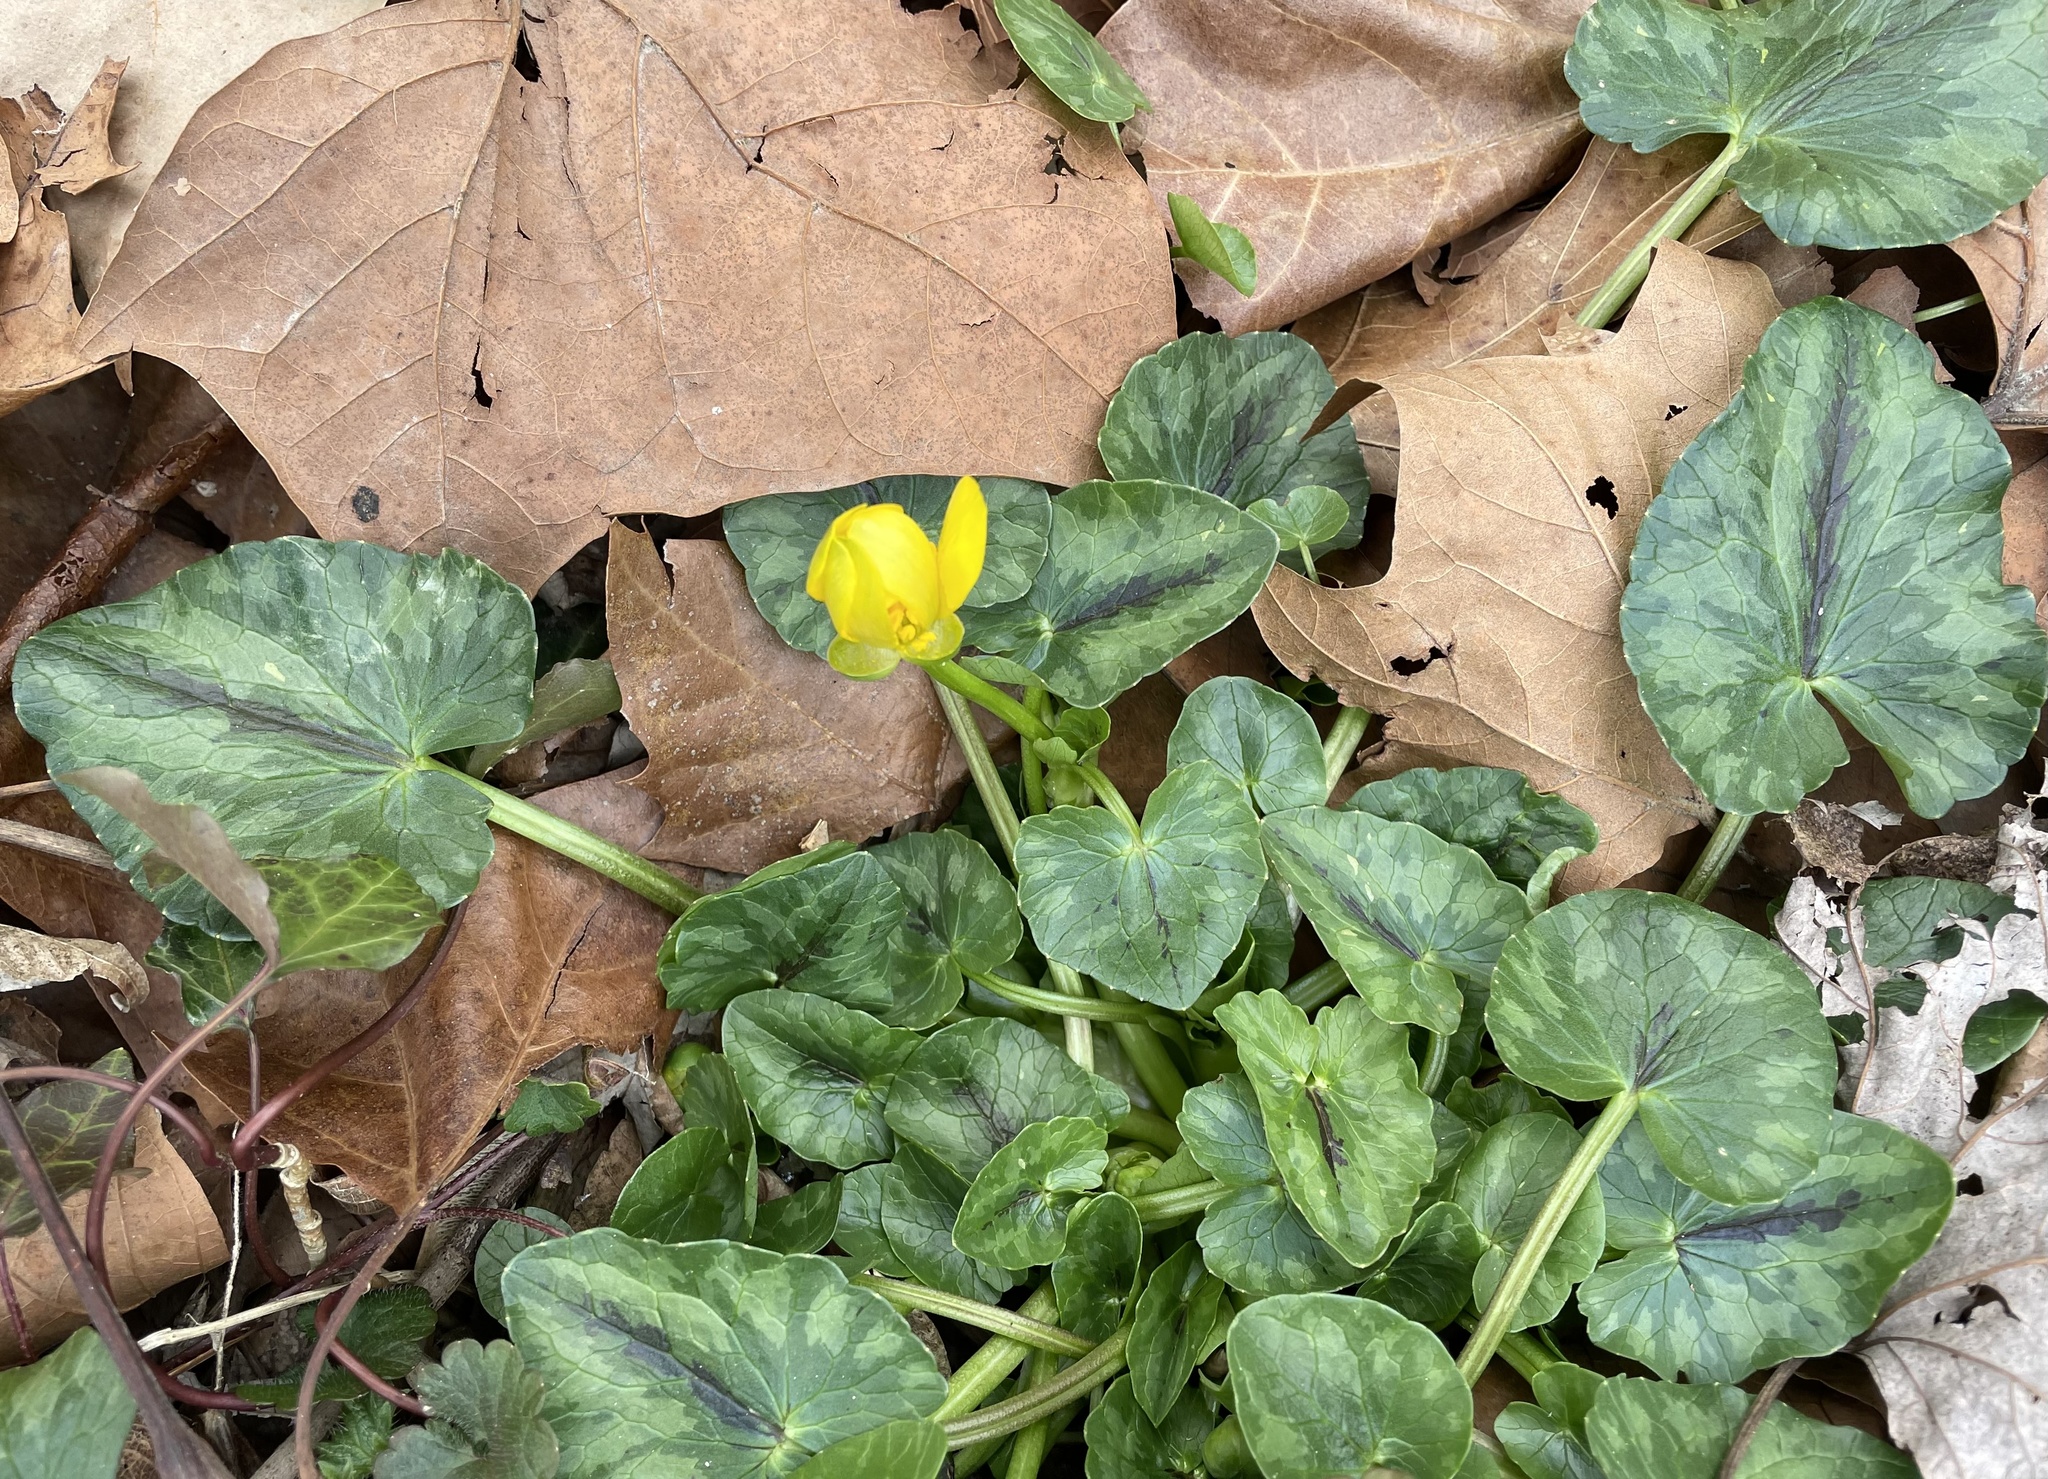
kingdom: Plantae
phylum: Tracheophyta
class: Magnoliopsida
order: Ranunculales
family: Ranunculaceae
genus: Ficaria
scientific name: Ficaria verna
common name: Lesser celandine
